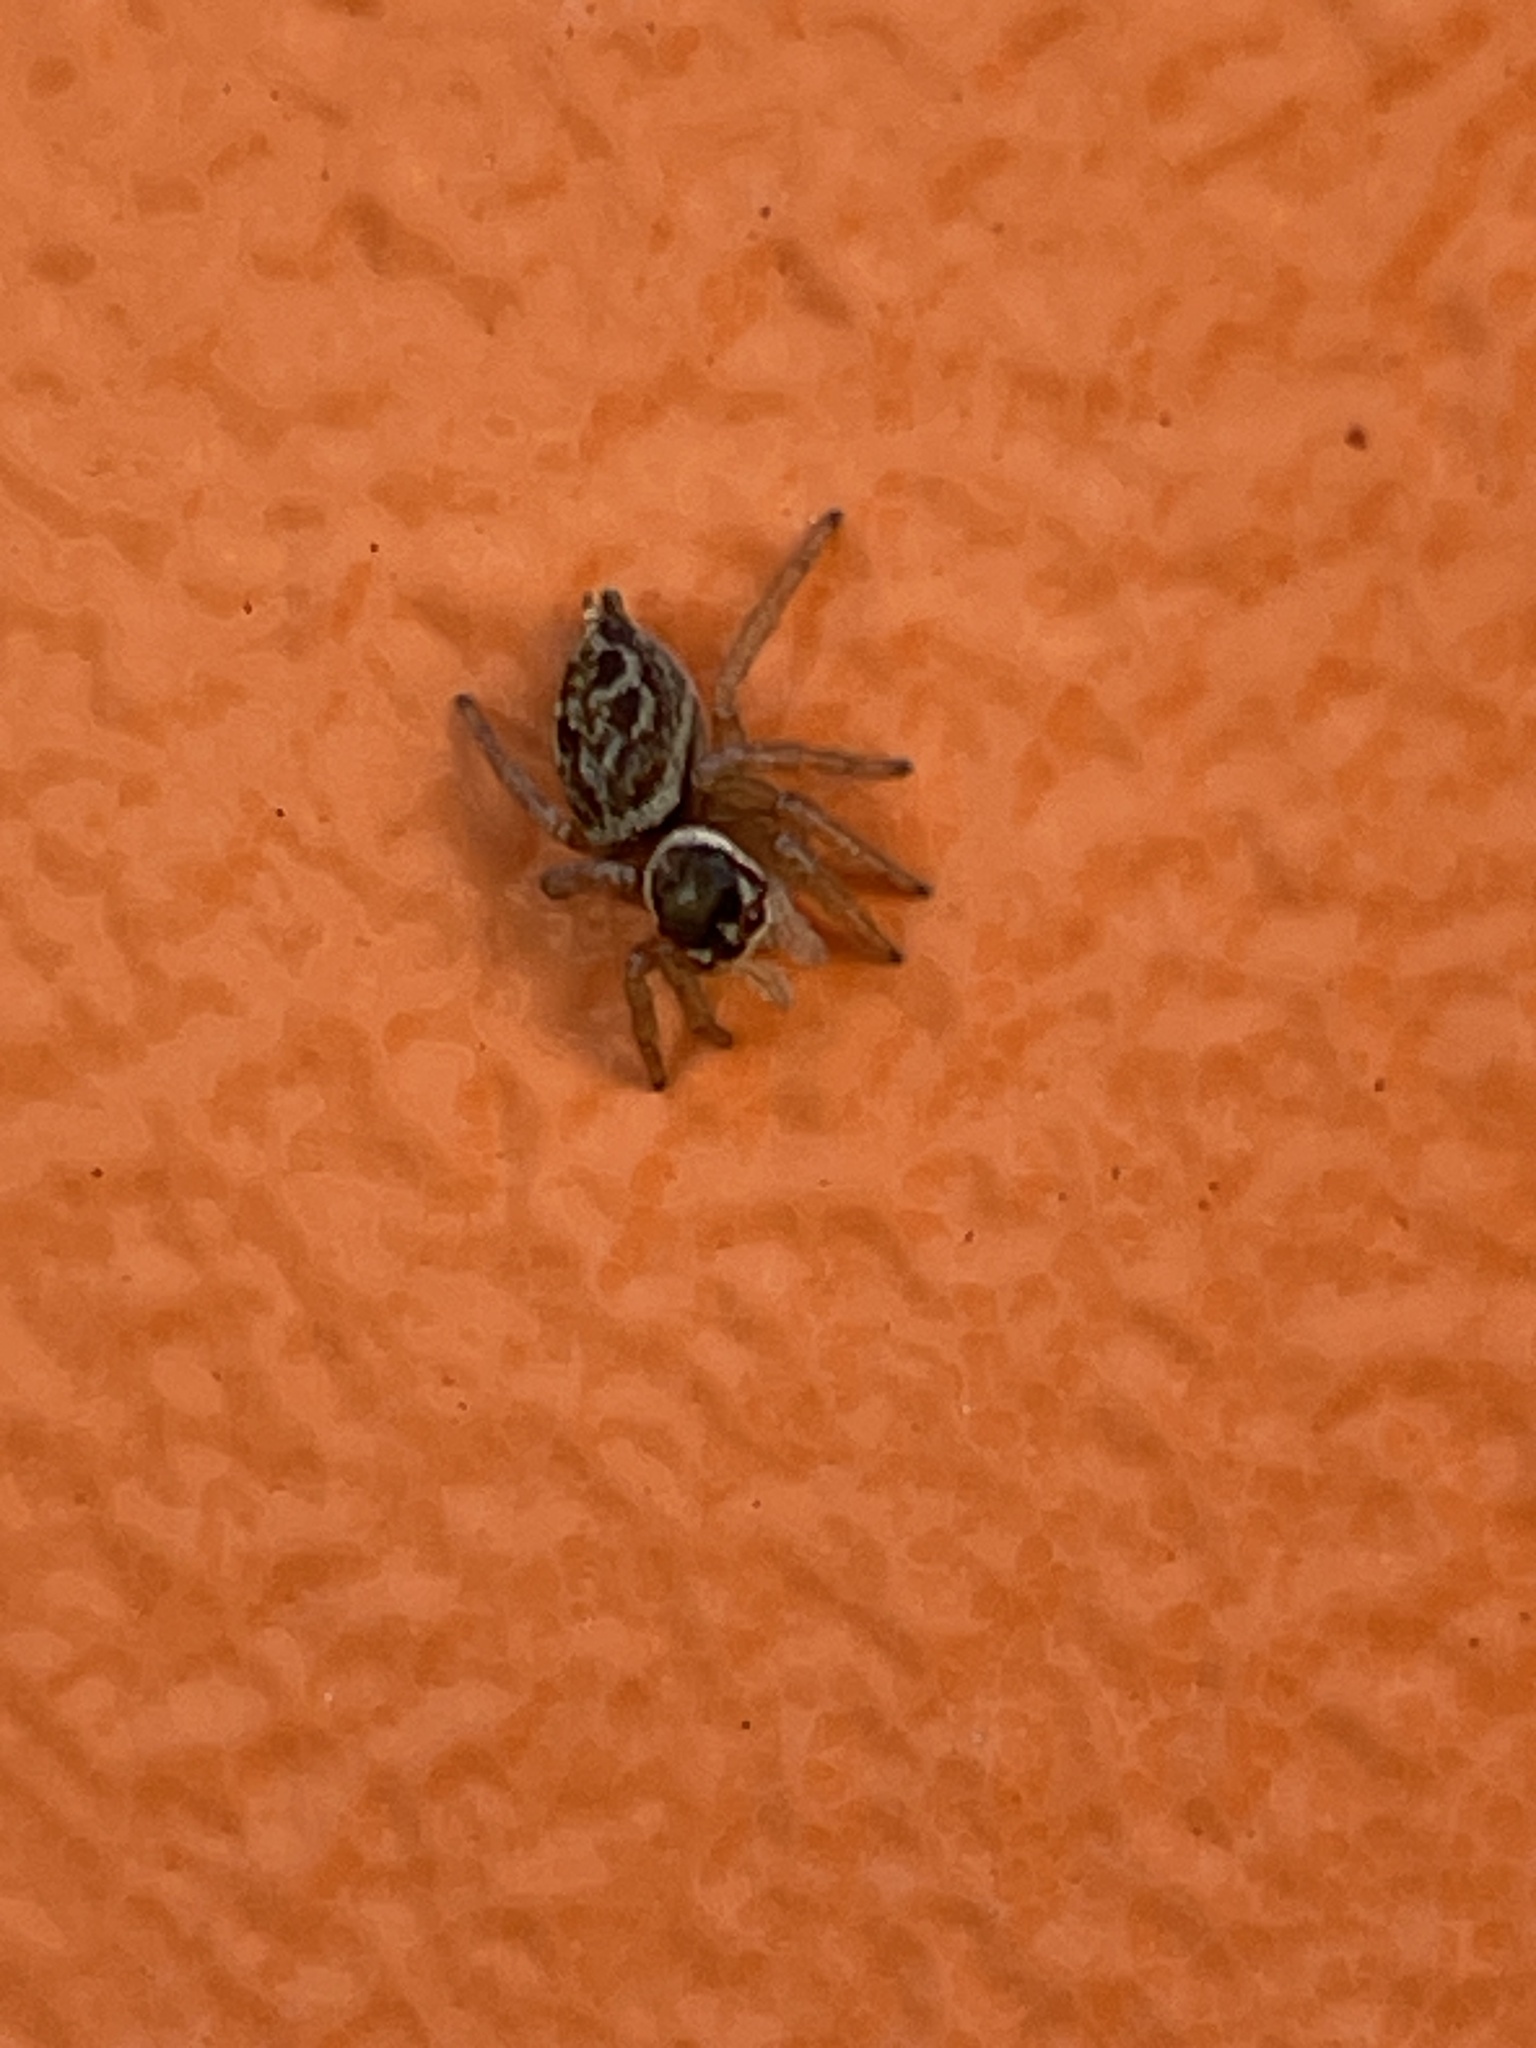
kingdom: Animalia
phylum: Arthropoda
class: Arachnida
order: Araneae
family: Salticidae
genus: Maratus
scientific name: Maratus griseus
